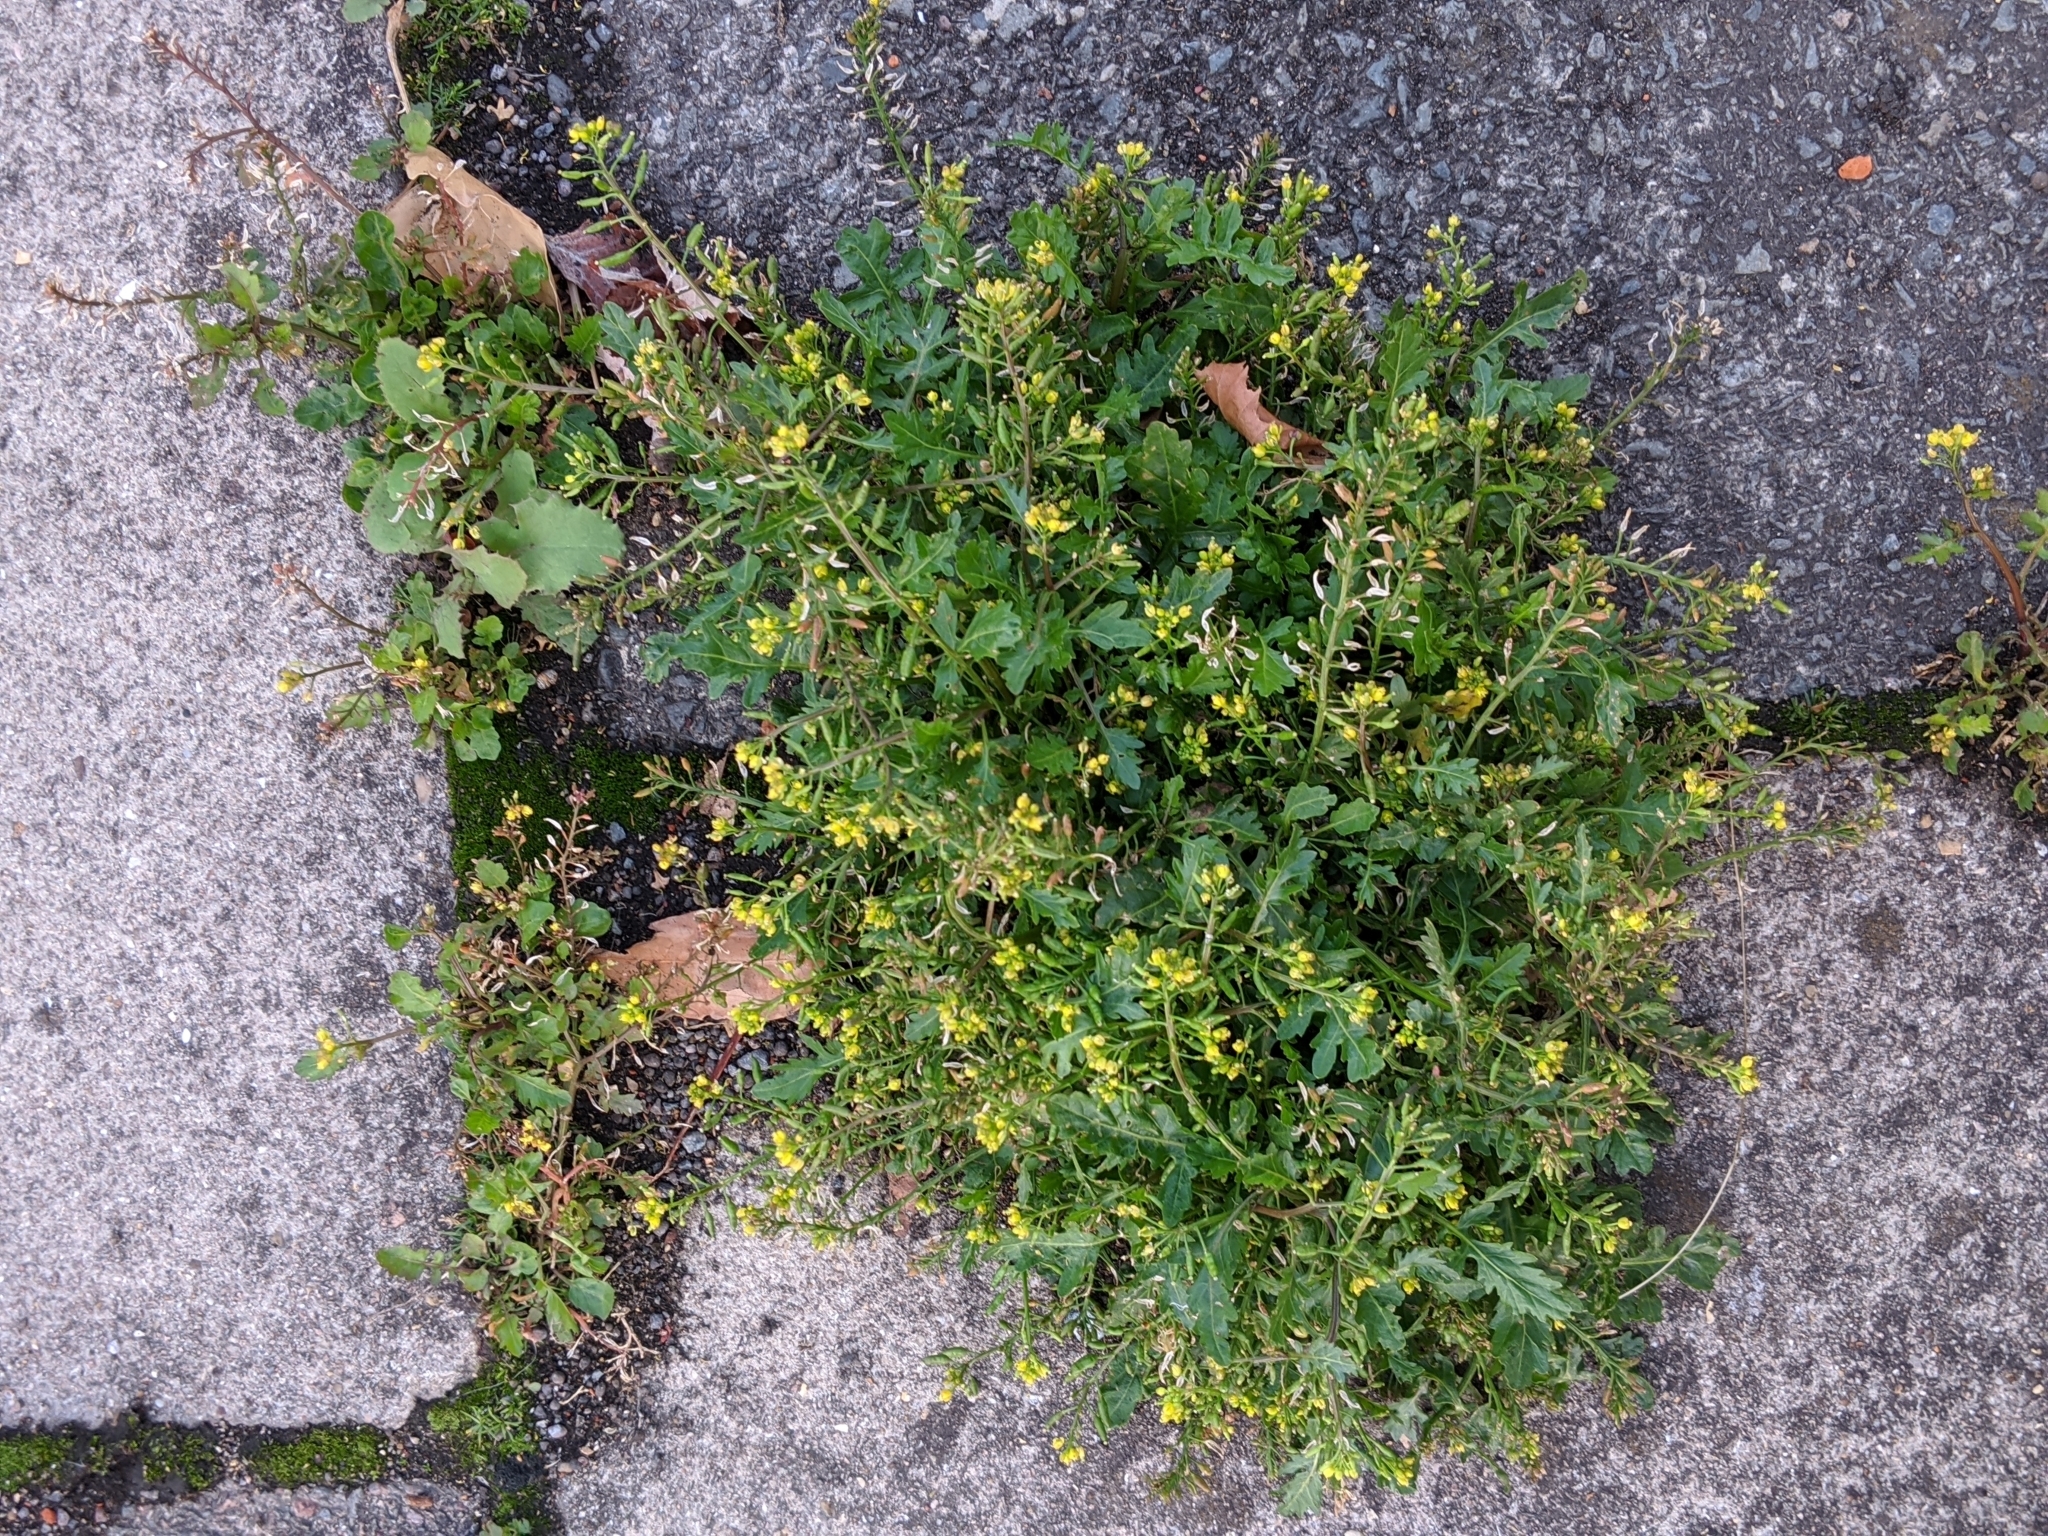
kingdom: Plantae
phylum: Tracheophyta
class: Magnoliopsida
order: Brassicales
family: Brassicaceae
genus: Rorippa
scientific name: Rorippa palustris
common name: Marsh yellow-cress
